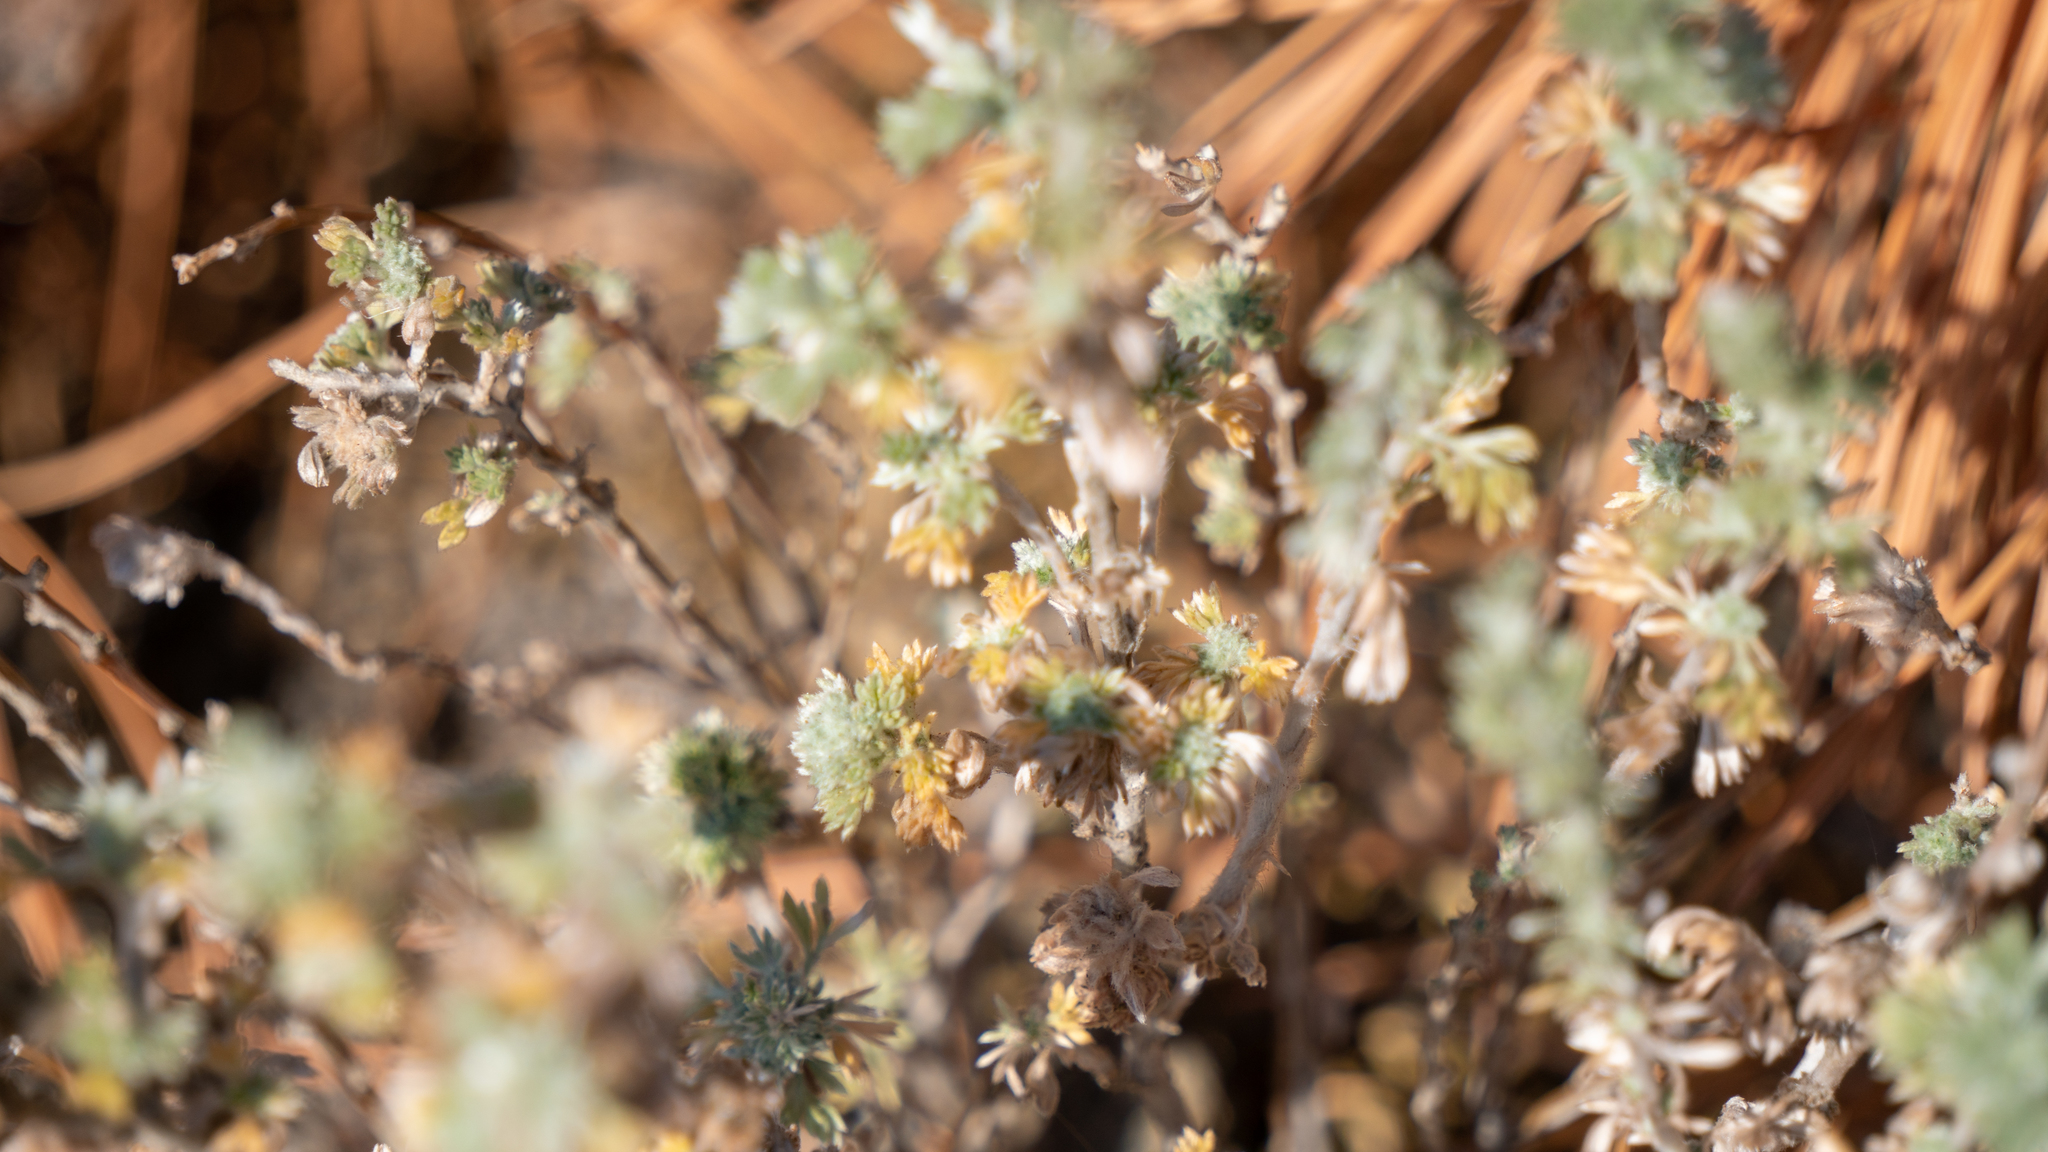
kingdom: Plantae
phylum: Tracheophyta
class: Magnoliopsida
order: Asterales
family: Asteraceae
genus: Artemisia
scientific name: Artemisia frigida
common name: Prairie sagewort
